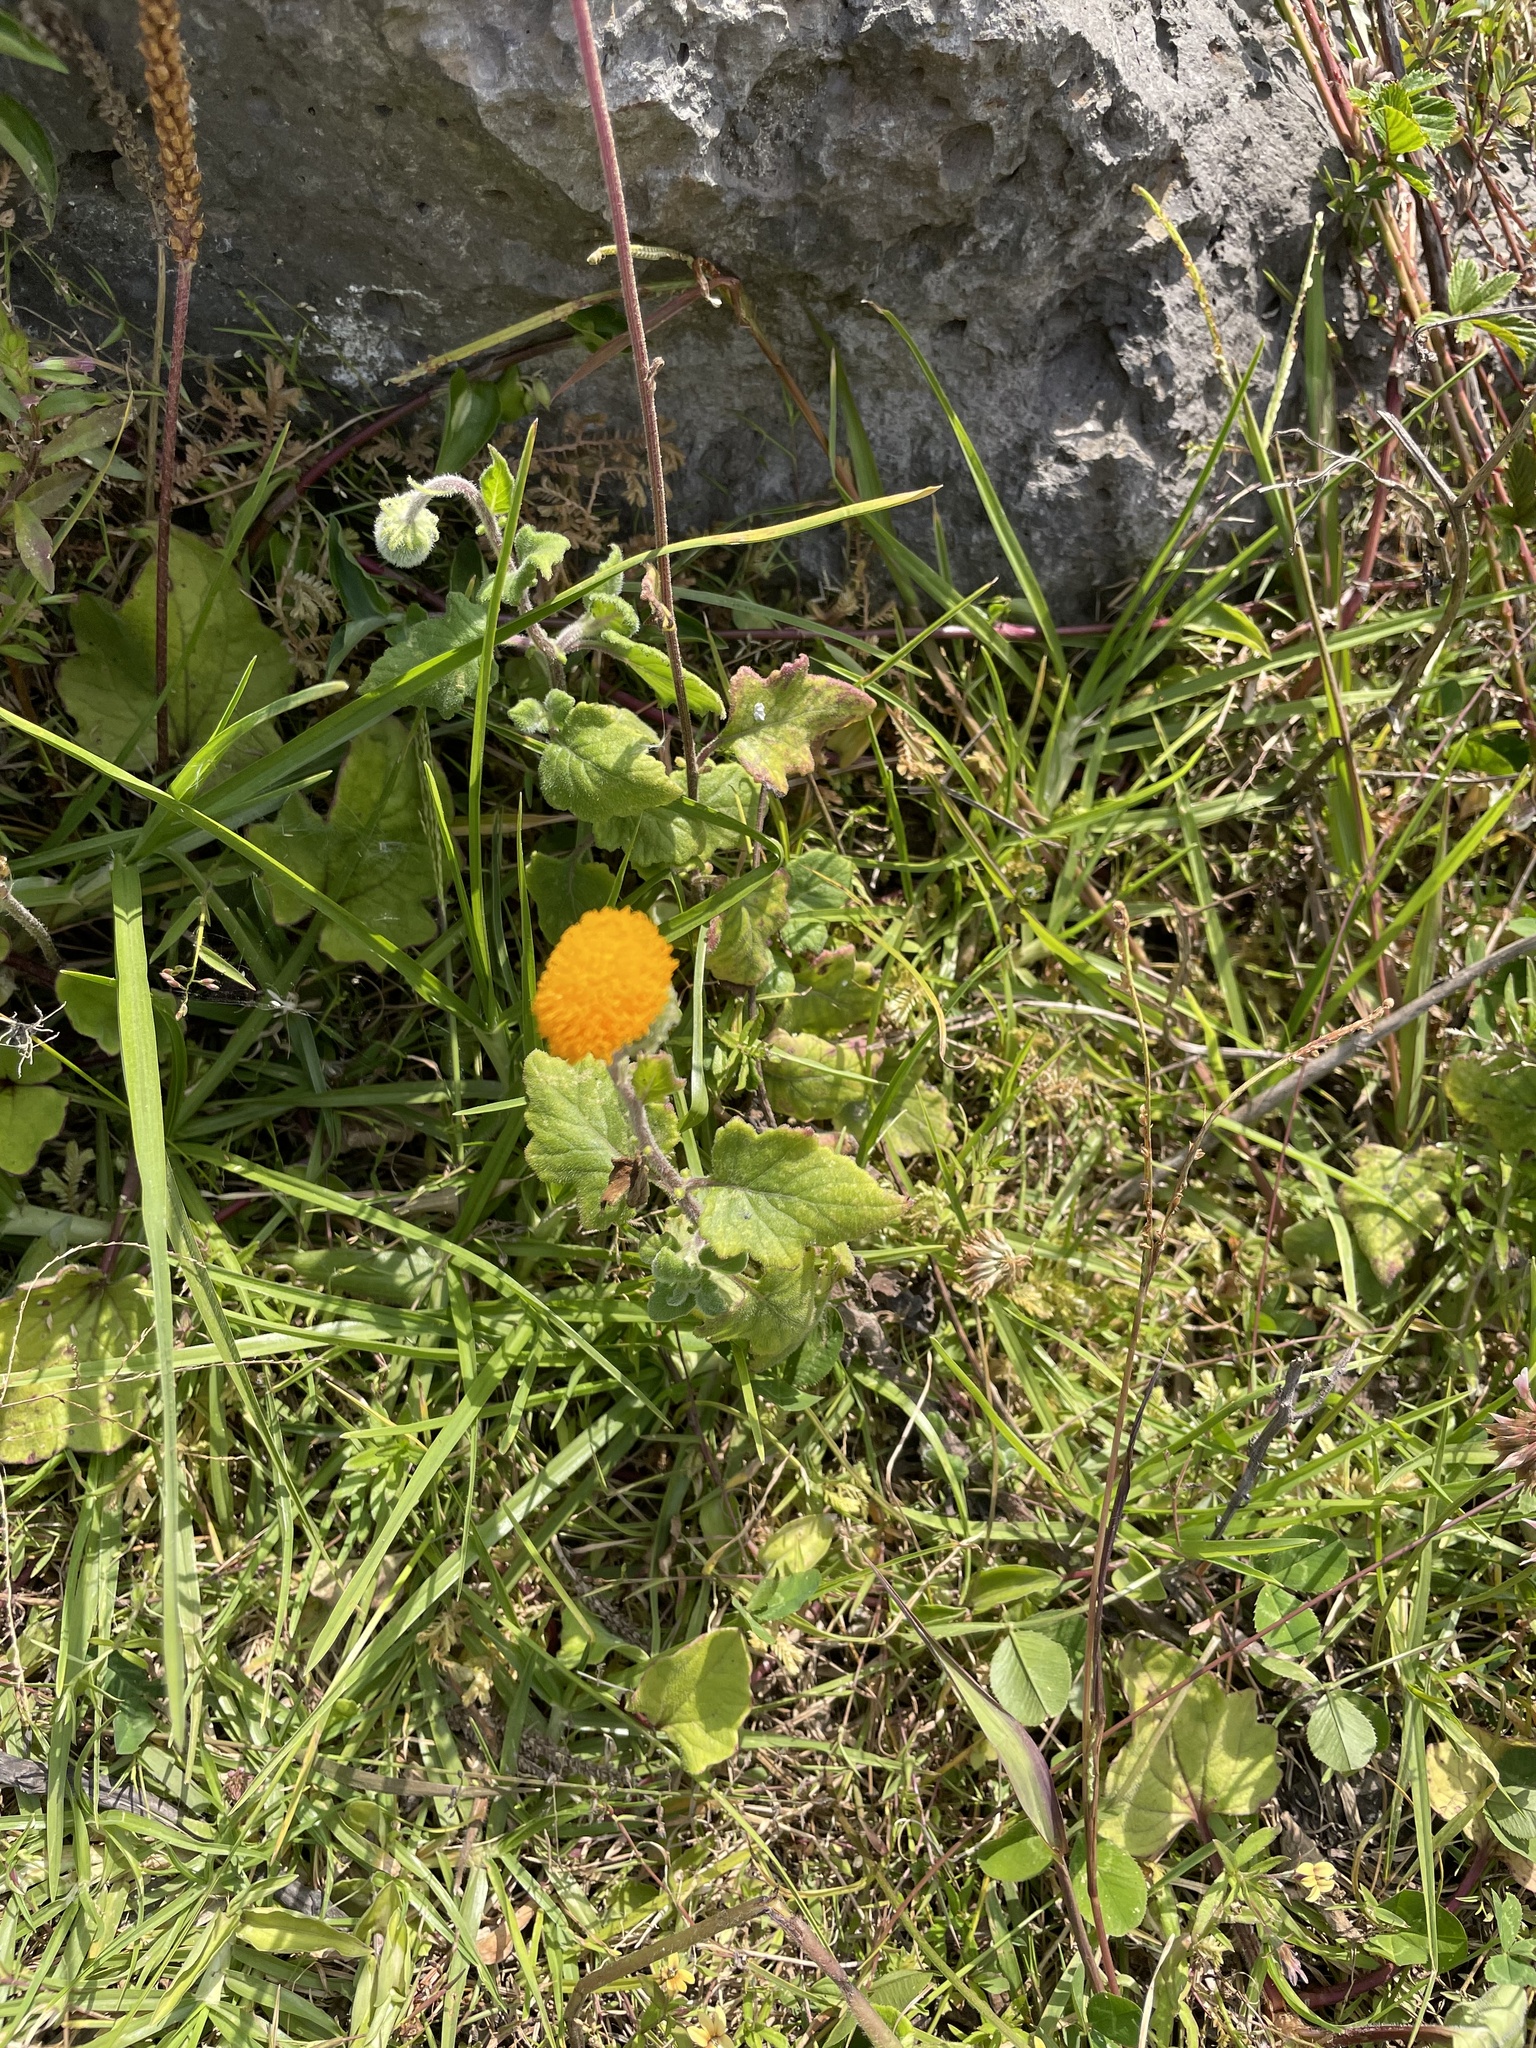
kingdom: Plantae
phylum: Tracheophyta
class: Magnoliopsida
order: Asterales
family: Asteraceae
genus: Crassocephalum
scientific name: Crassocephalum vitellinum
